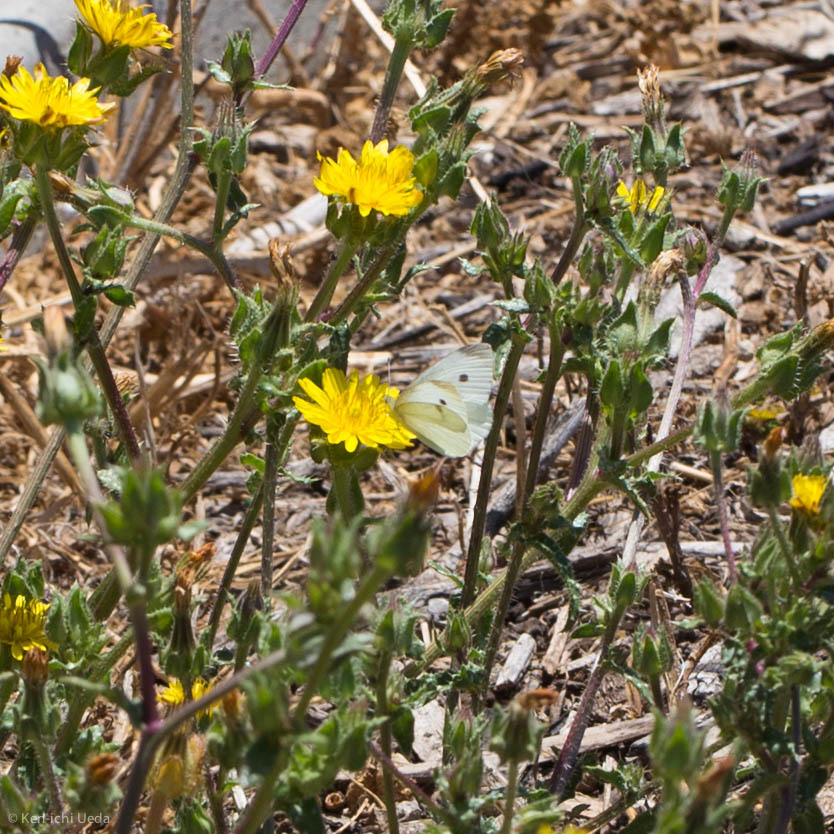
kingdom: Animalia
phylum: Arthropoda
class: Insecta
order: Lepidoptera
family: Pieridae
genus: Pieris
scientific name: Pieris rapae
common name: Small white
